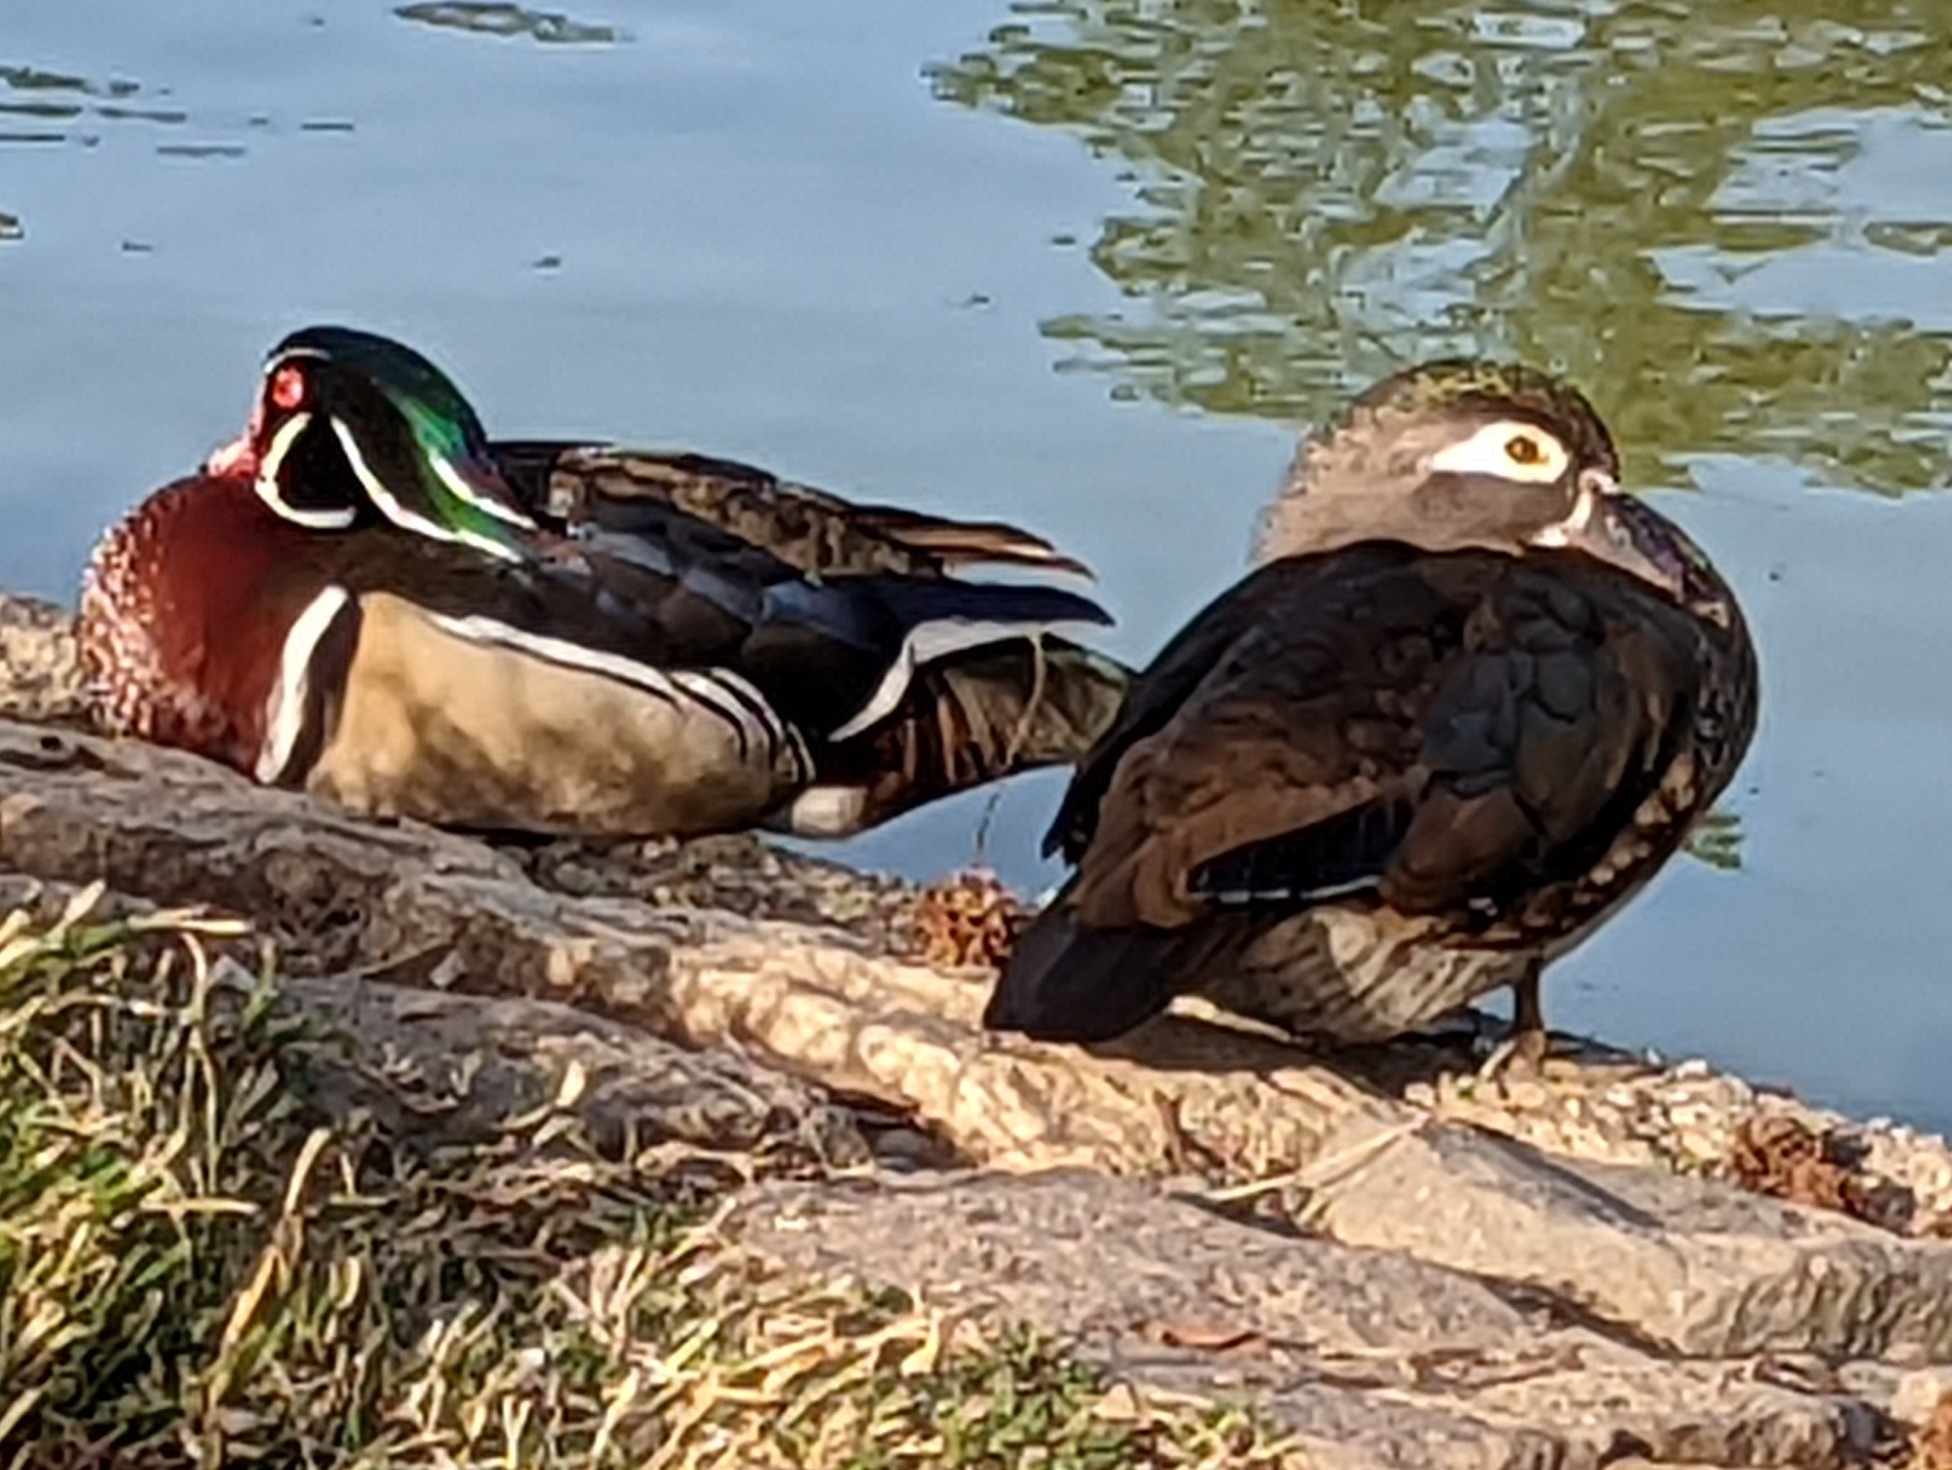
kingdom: Animalia
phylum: Chordata
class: Aves
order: Anseriformes
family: Anatidae
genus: Aix
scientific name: Aix sponsa
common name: Wood duck
